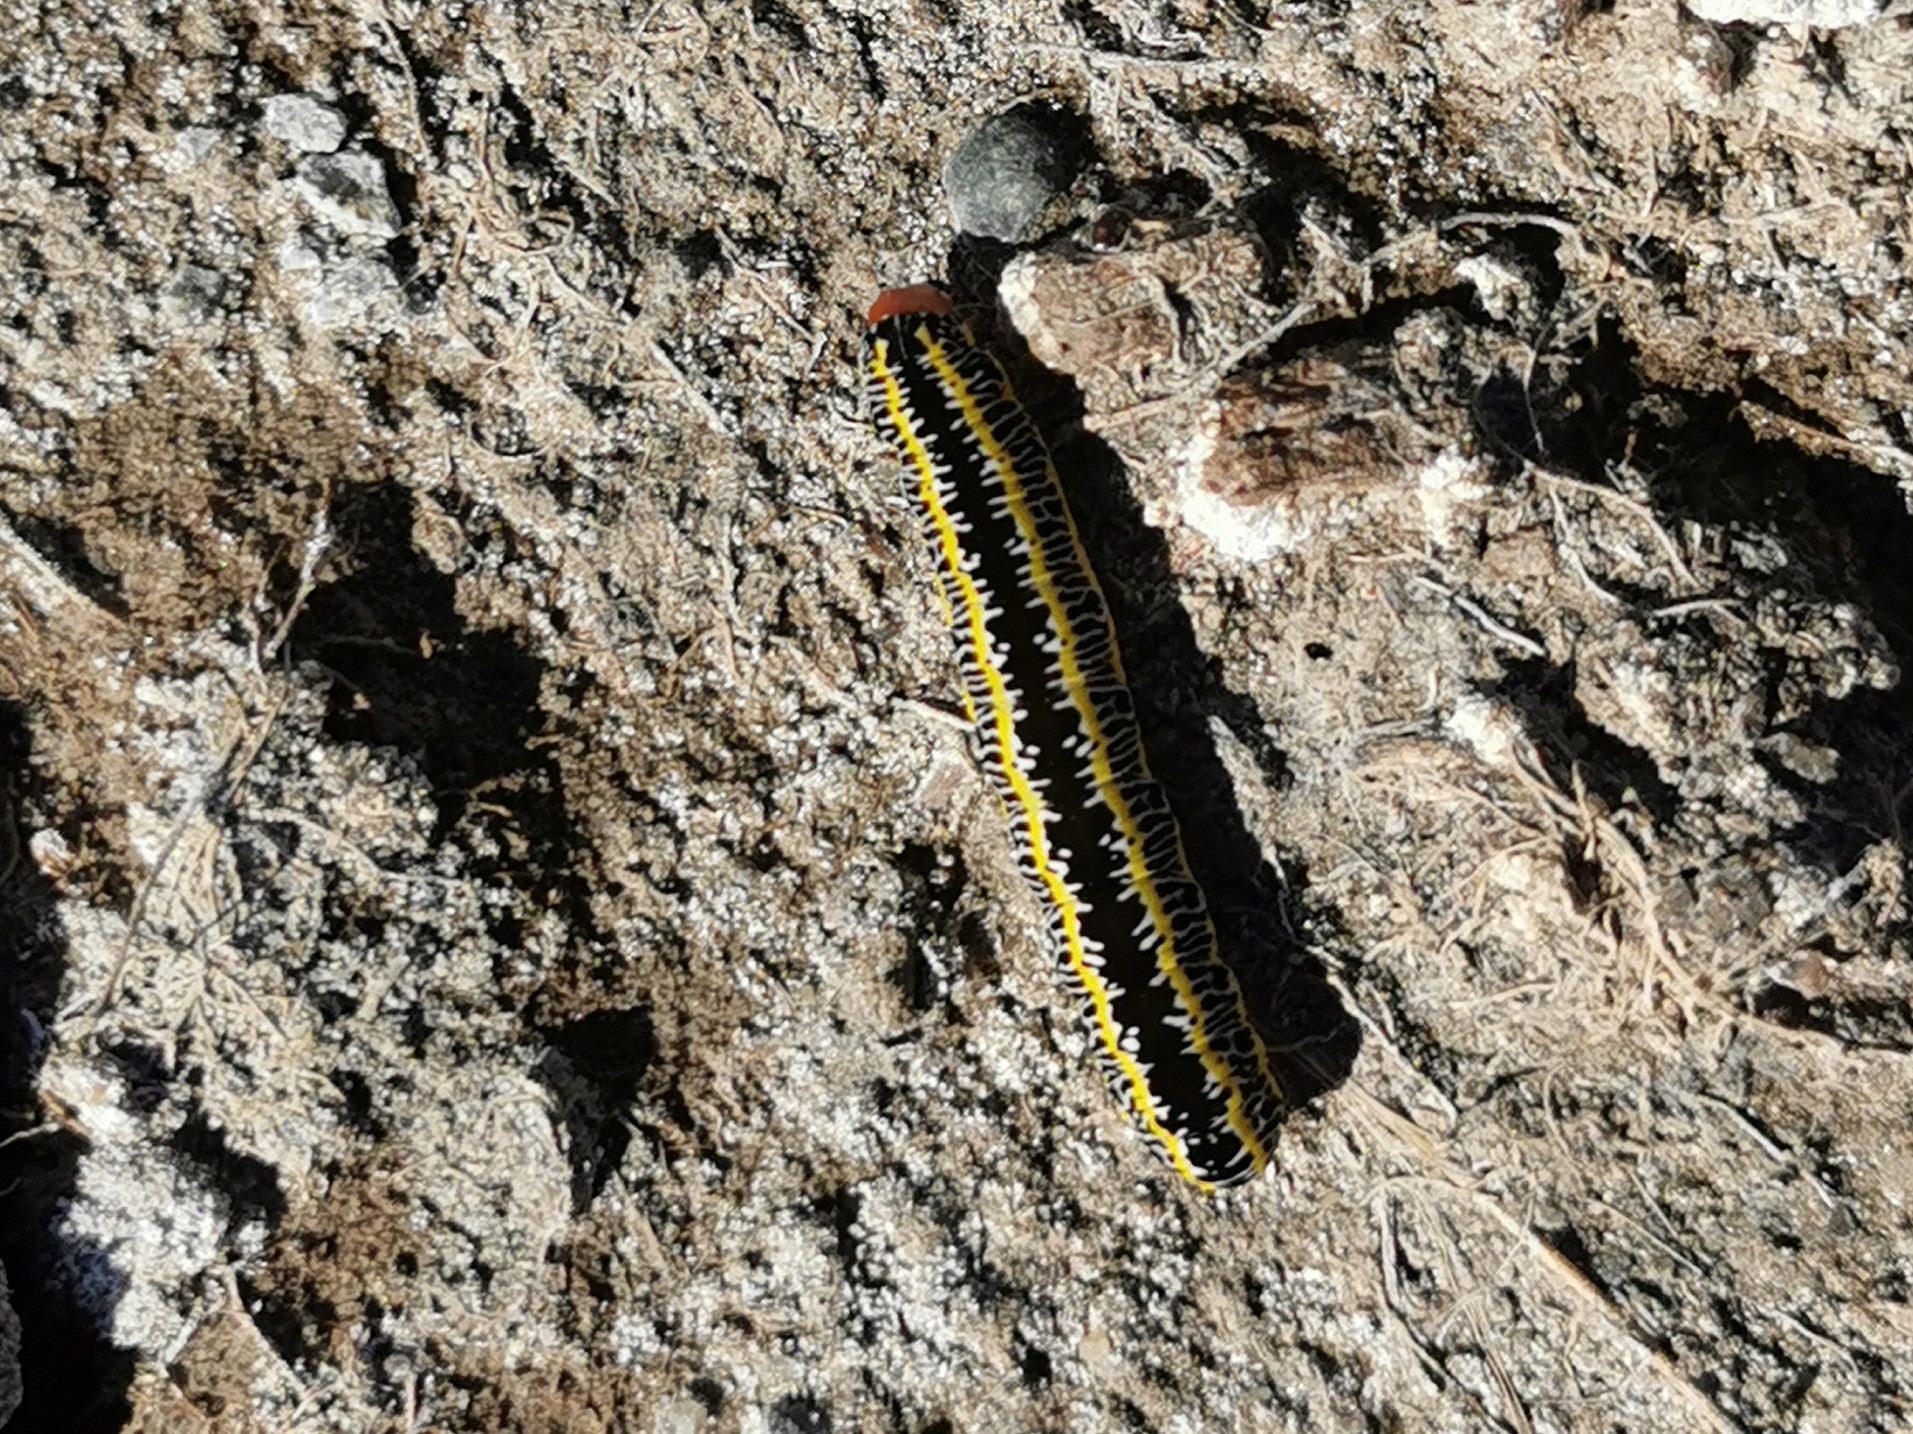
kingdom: Animalia
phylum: Arthropoda
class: Insecta
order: Lepidoptera
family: Noctuidae
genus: Melanchra
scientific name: Melanchra picta
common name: Zebra caterpillar
